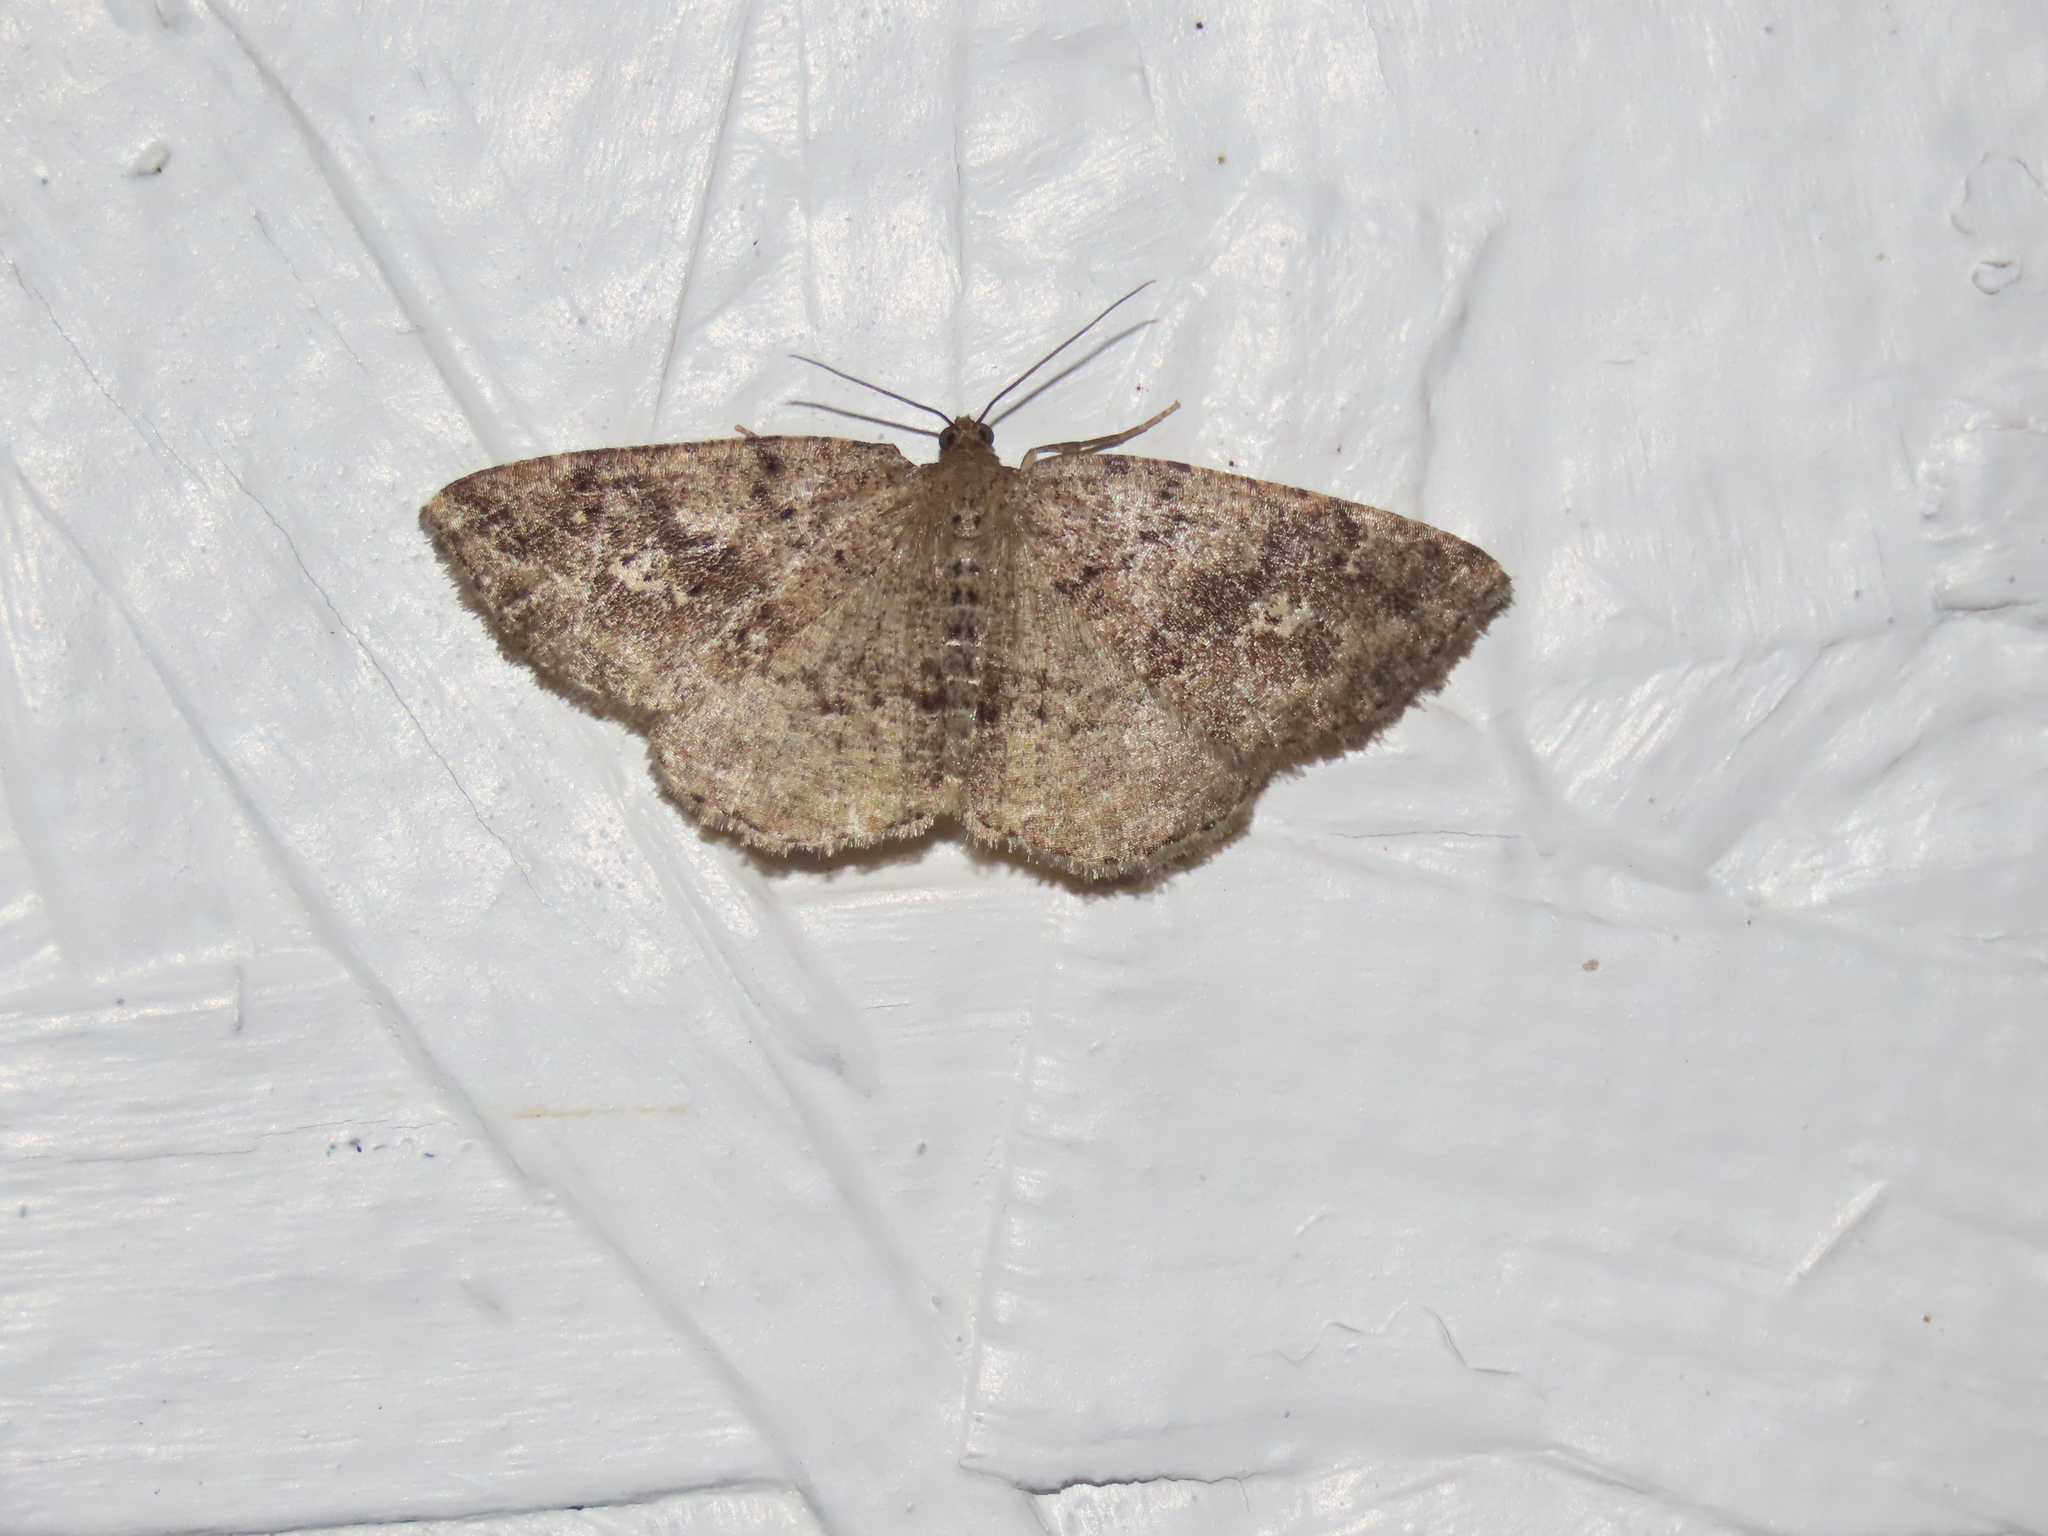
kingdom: Animalia
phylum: Arthropoda
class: Insecta
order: Lepidoptera
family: Geometridae
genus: Homochlodes
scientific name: Homochlodes fritillaria
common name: Pale homochlodes
